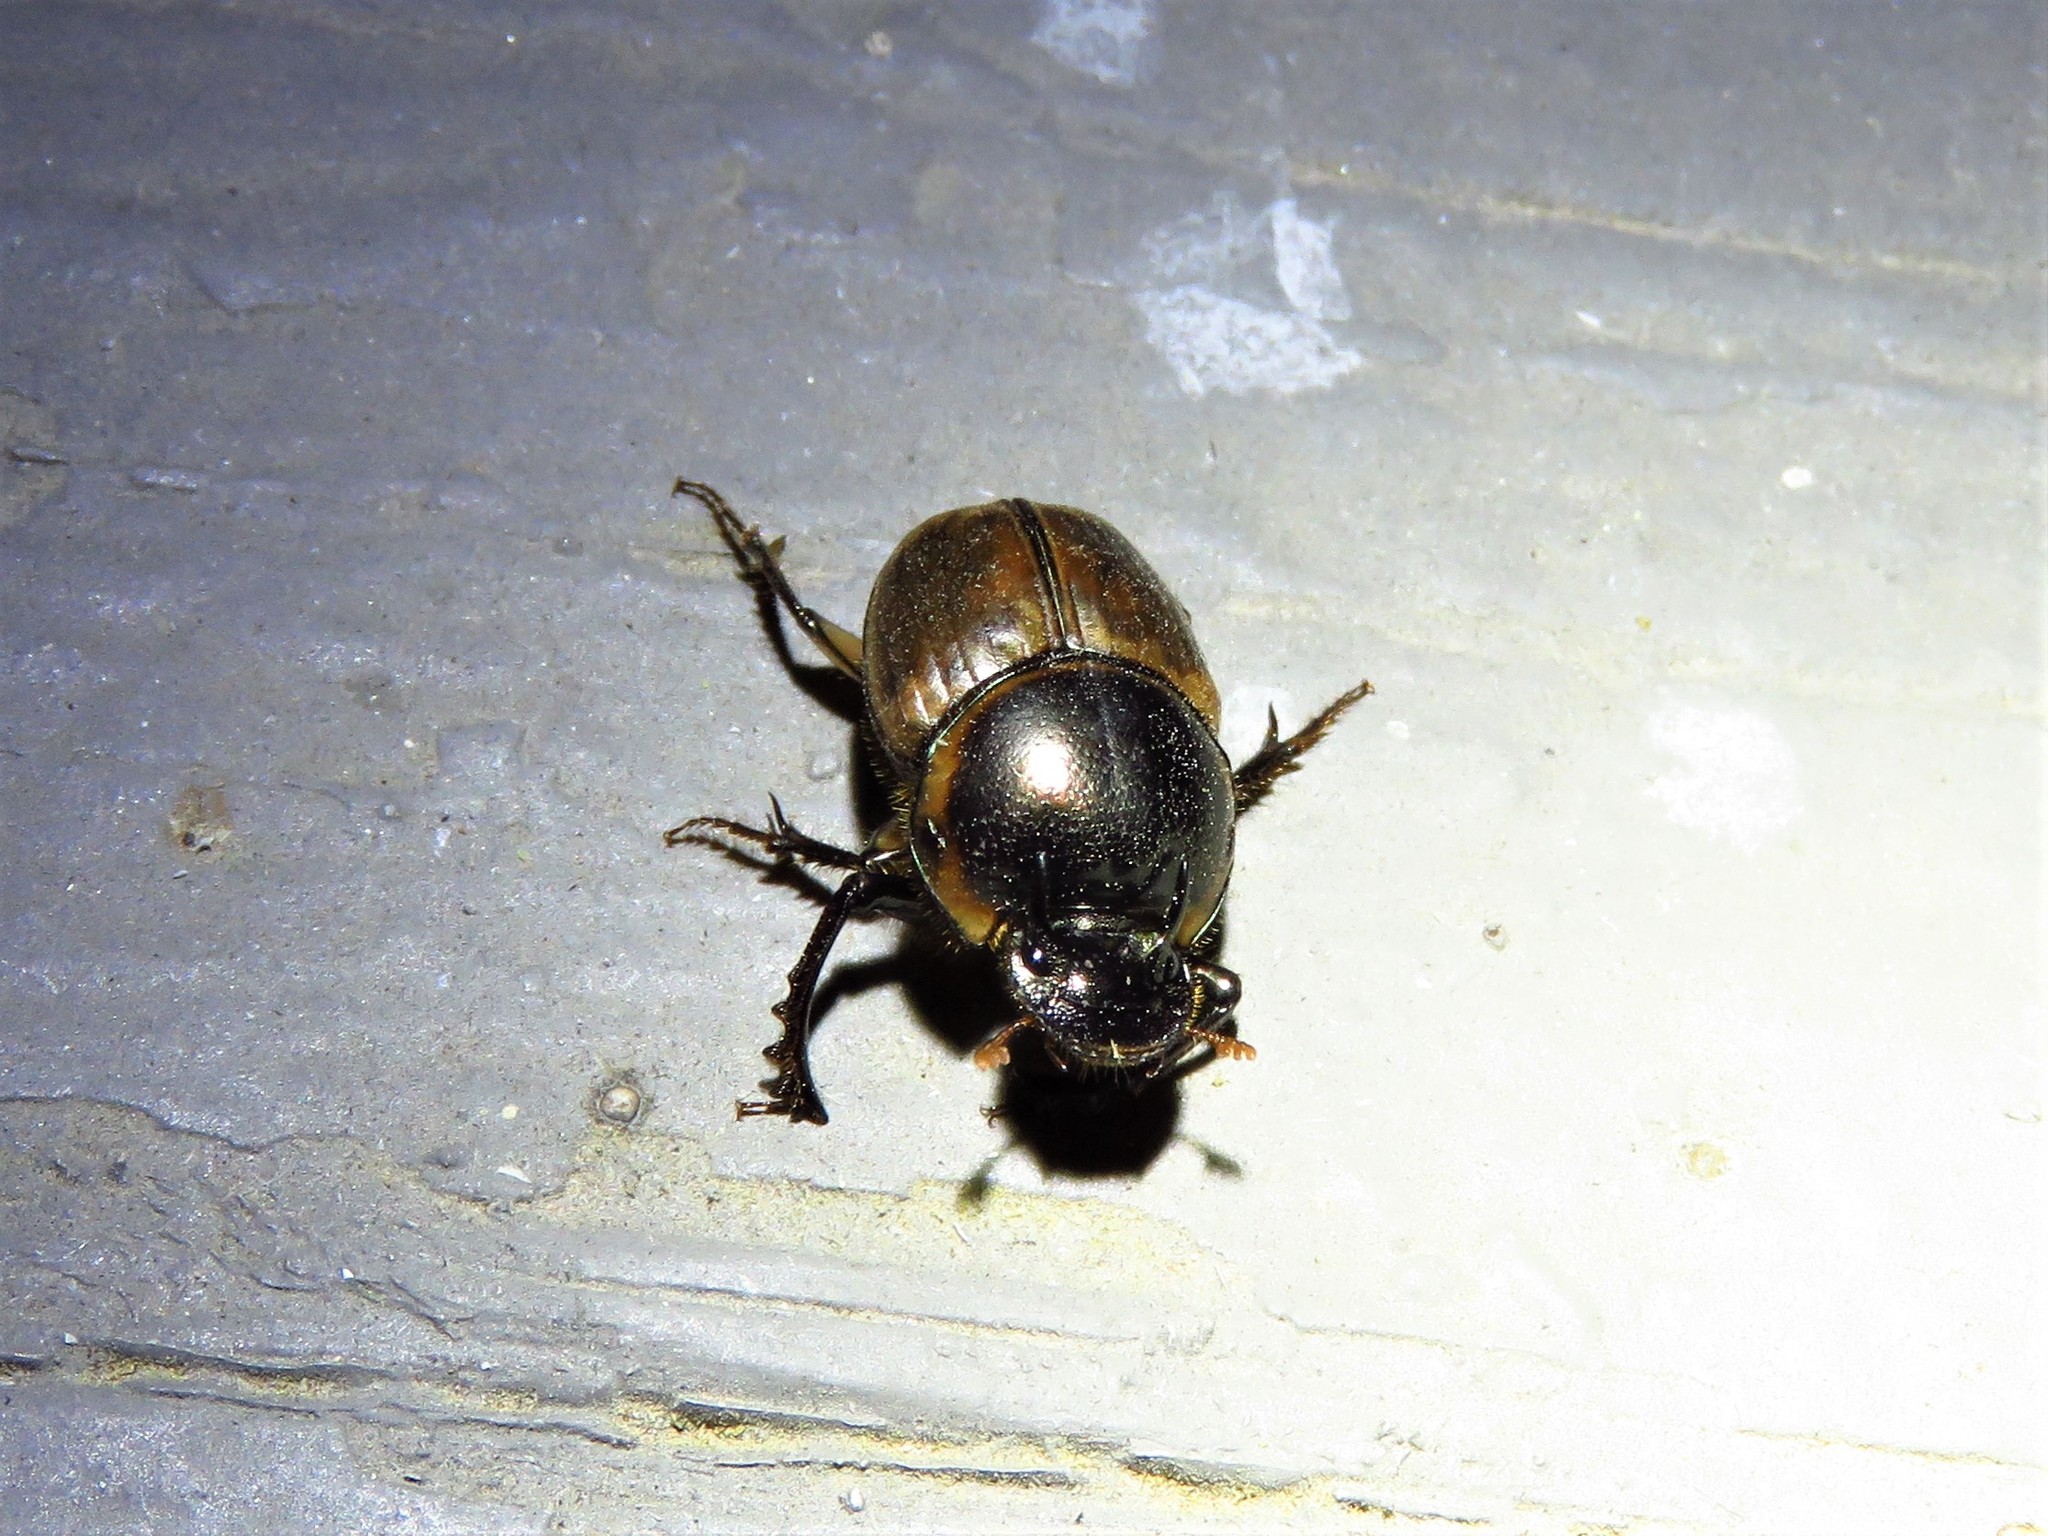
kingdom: Animalia
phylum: Arthropoda
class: Insecta
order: Coleoptera
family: Scarabaeidae
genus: Digitonthophagus
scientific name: Digitonthophagus gazella
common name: Brown dung beetle
